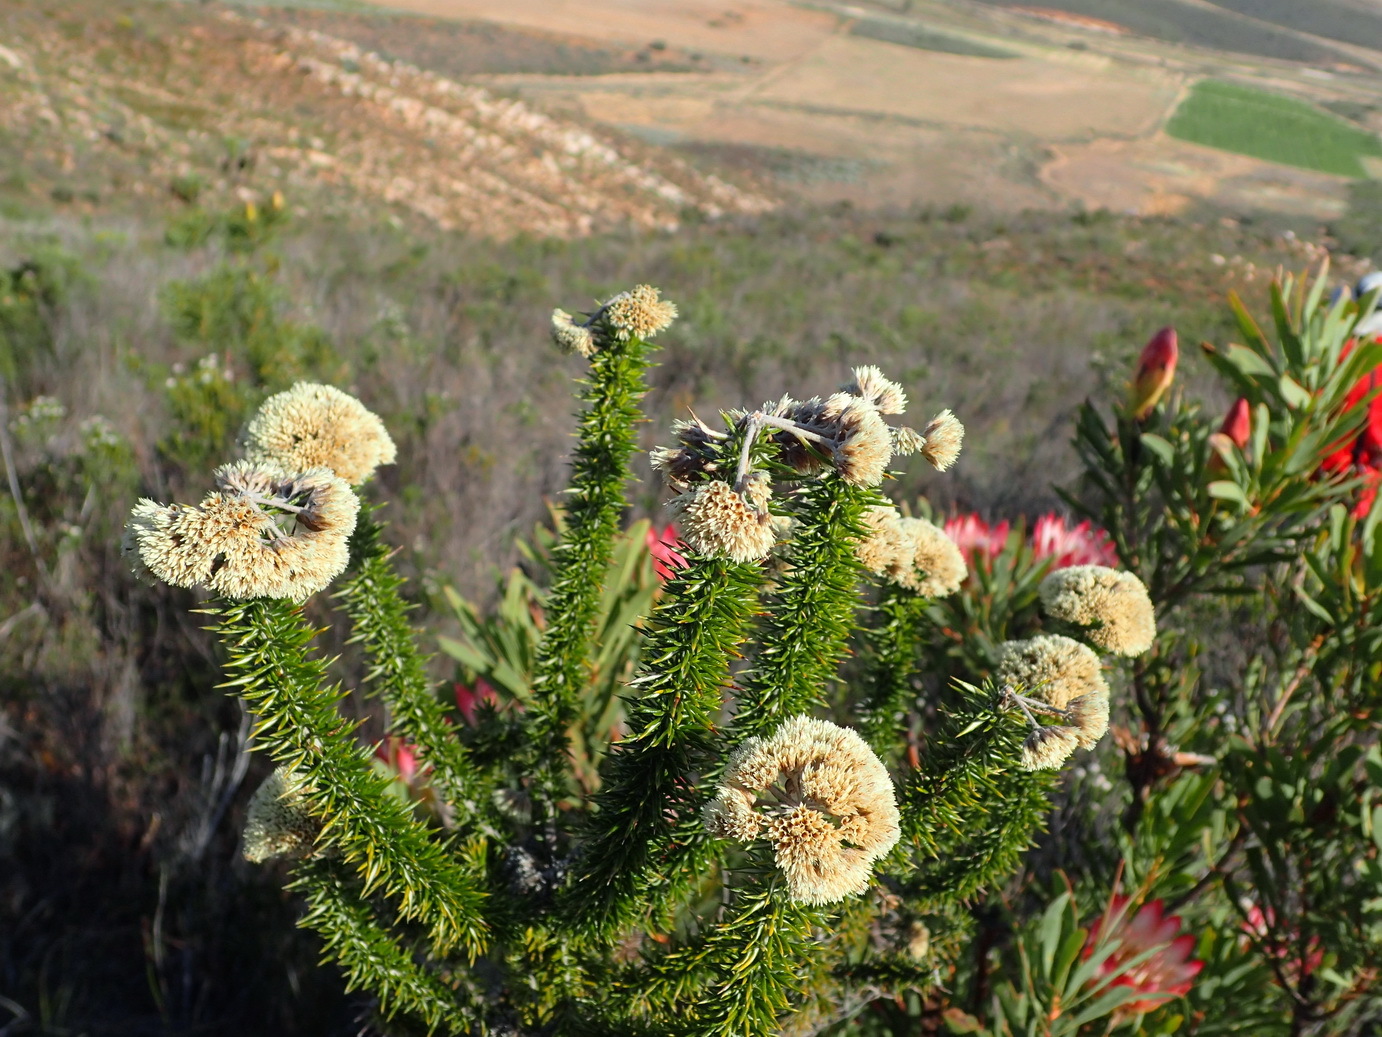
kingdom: Plantae
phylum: Tracheophyta
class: Magnoliopsida
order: Asterales
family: Asteraceae
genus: Metalasia
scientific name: Metalasia acuta
